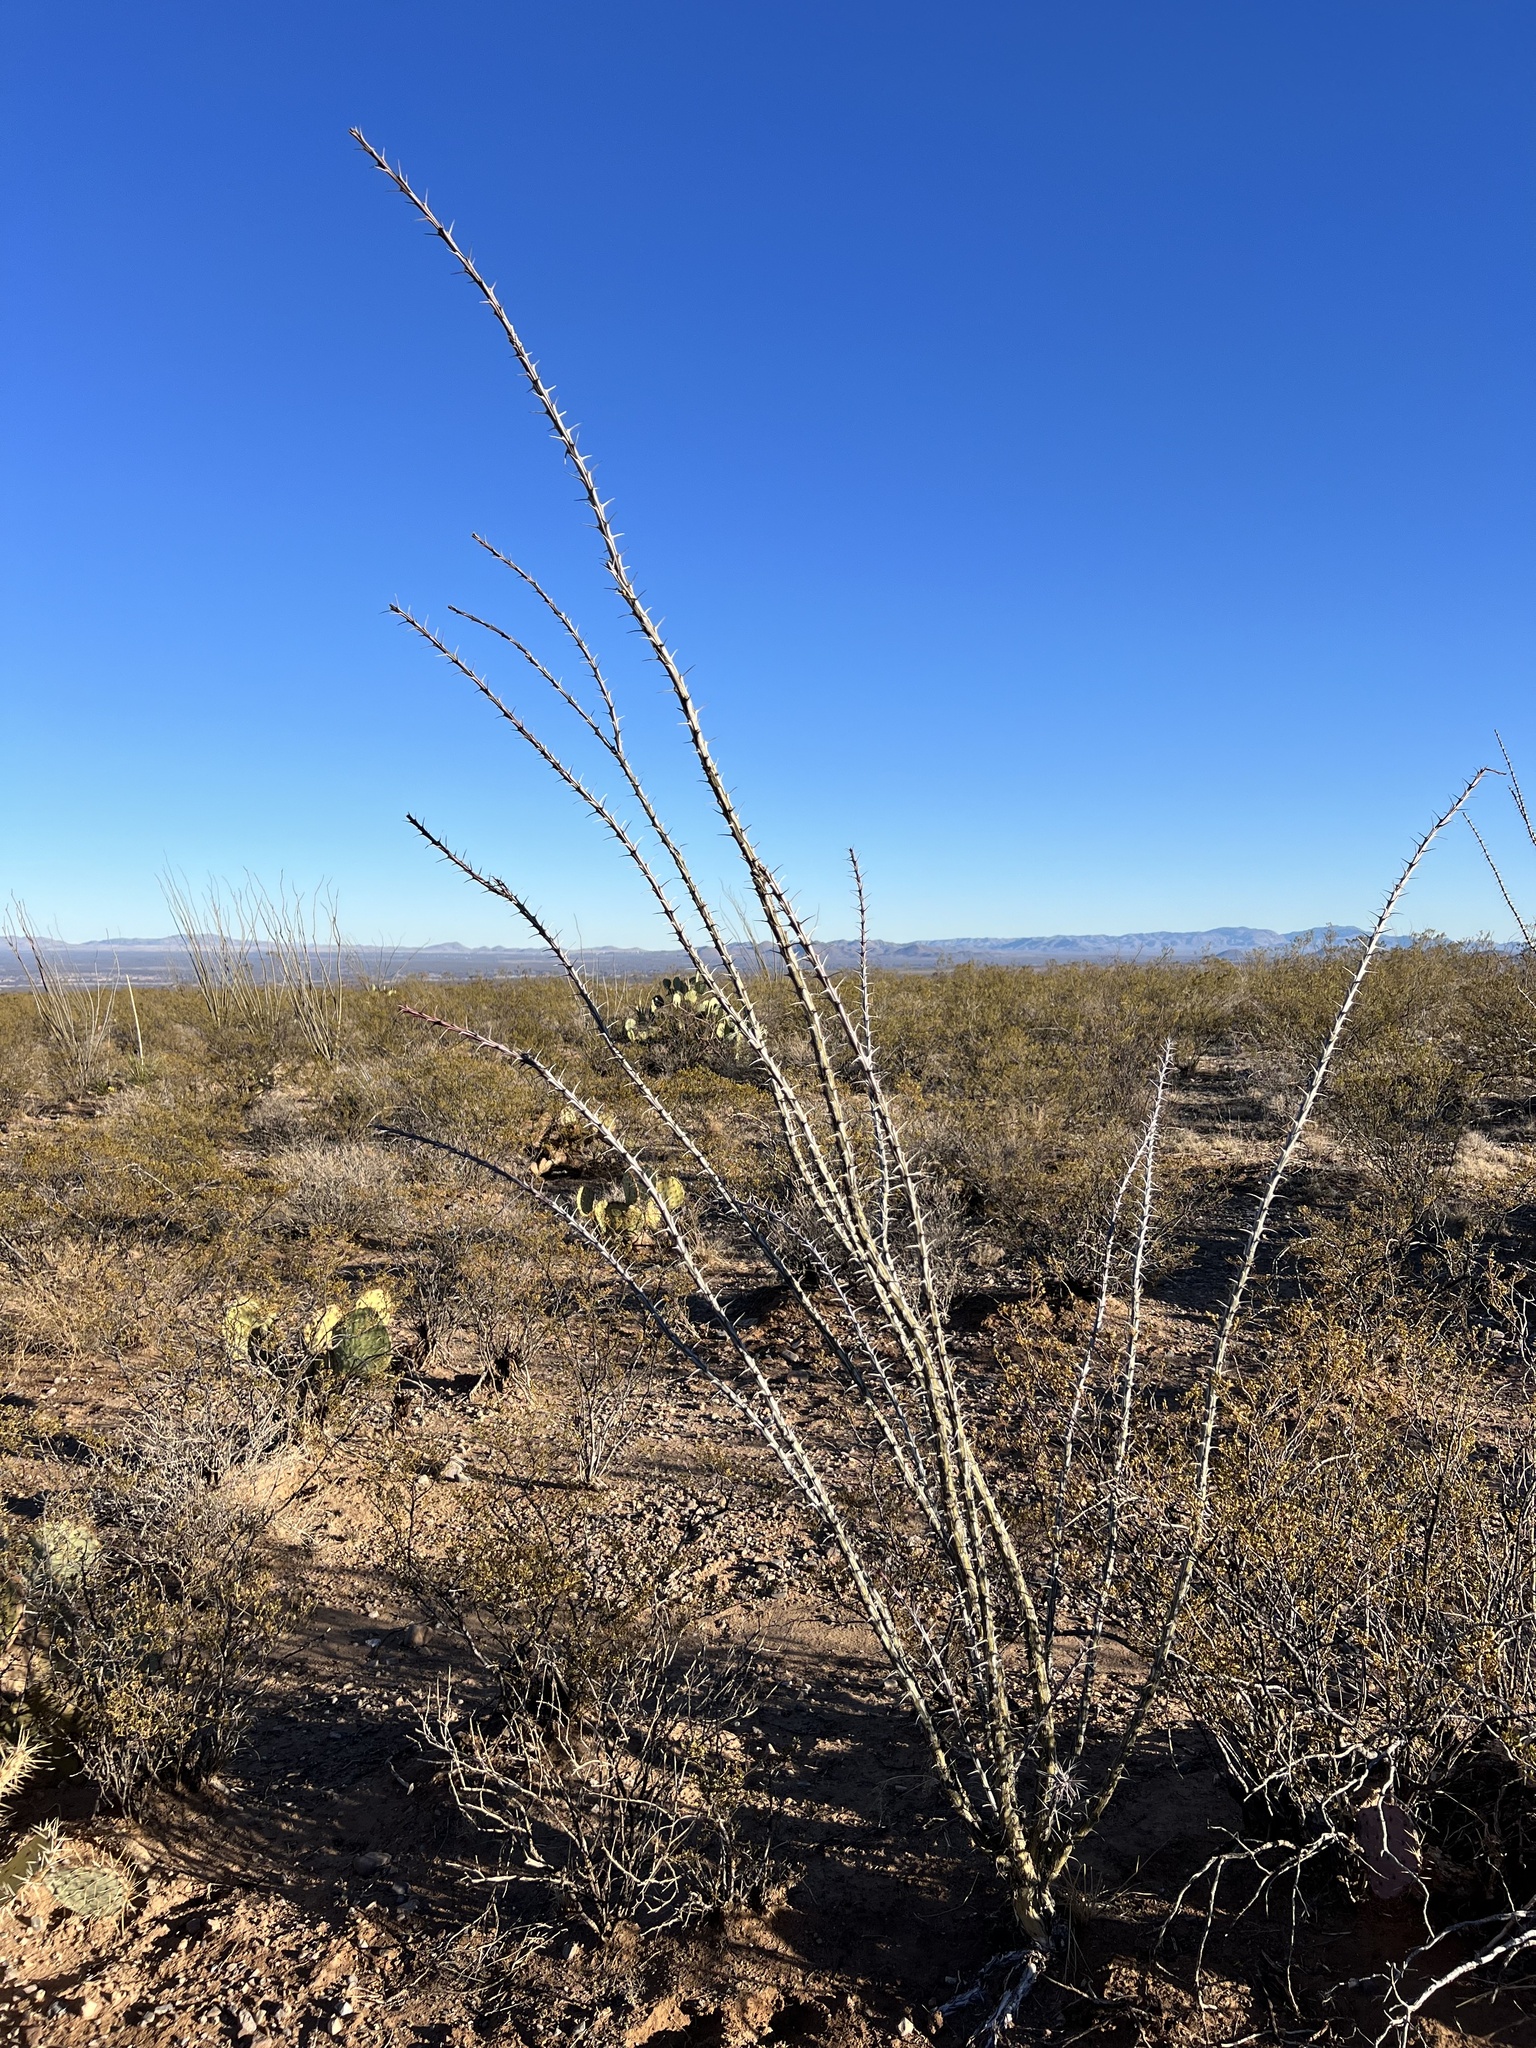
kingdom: Plantae
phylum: Tracheophyta
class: Magnoliopsida
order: Ericales
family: Fouquieriaceae
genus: Fouquieria
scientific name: Fouquieria splendens
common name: Vine-cactus
